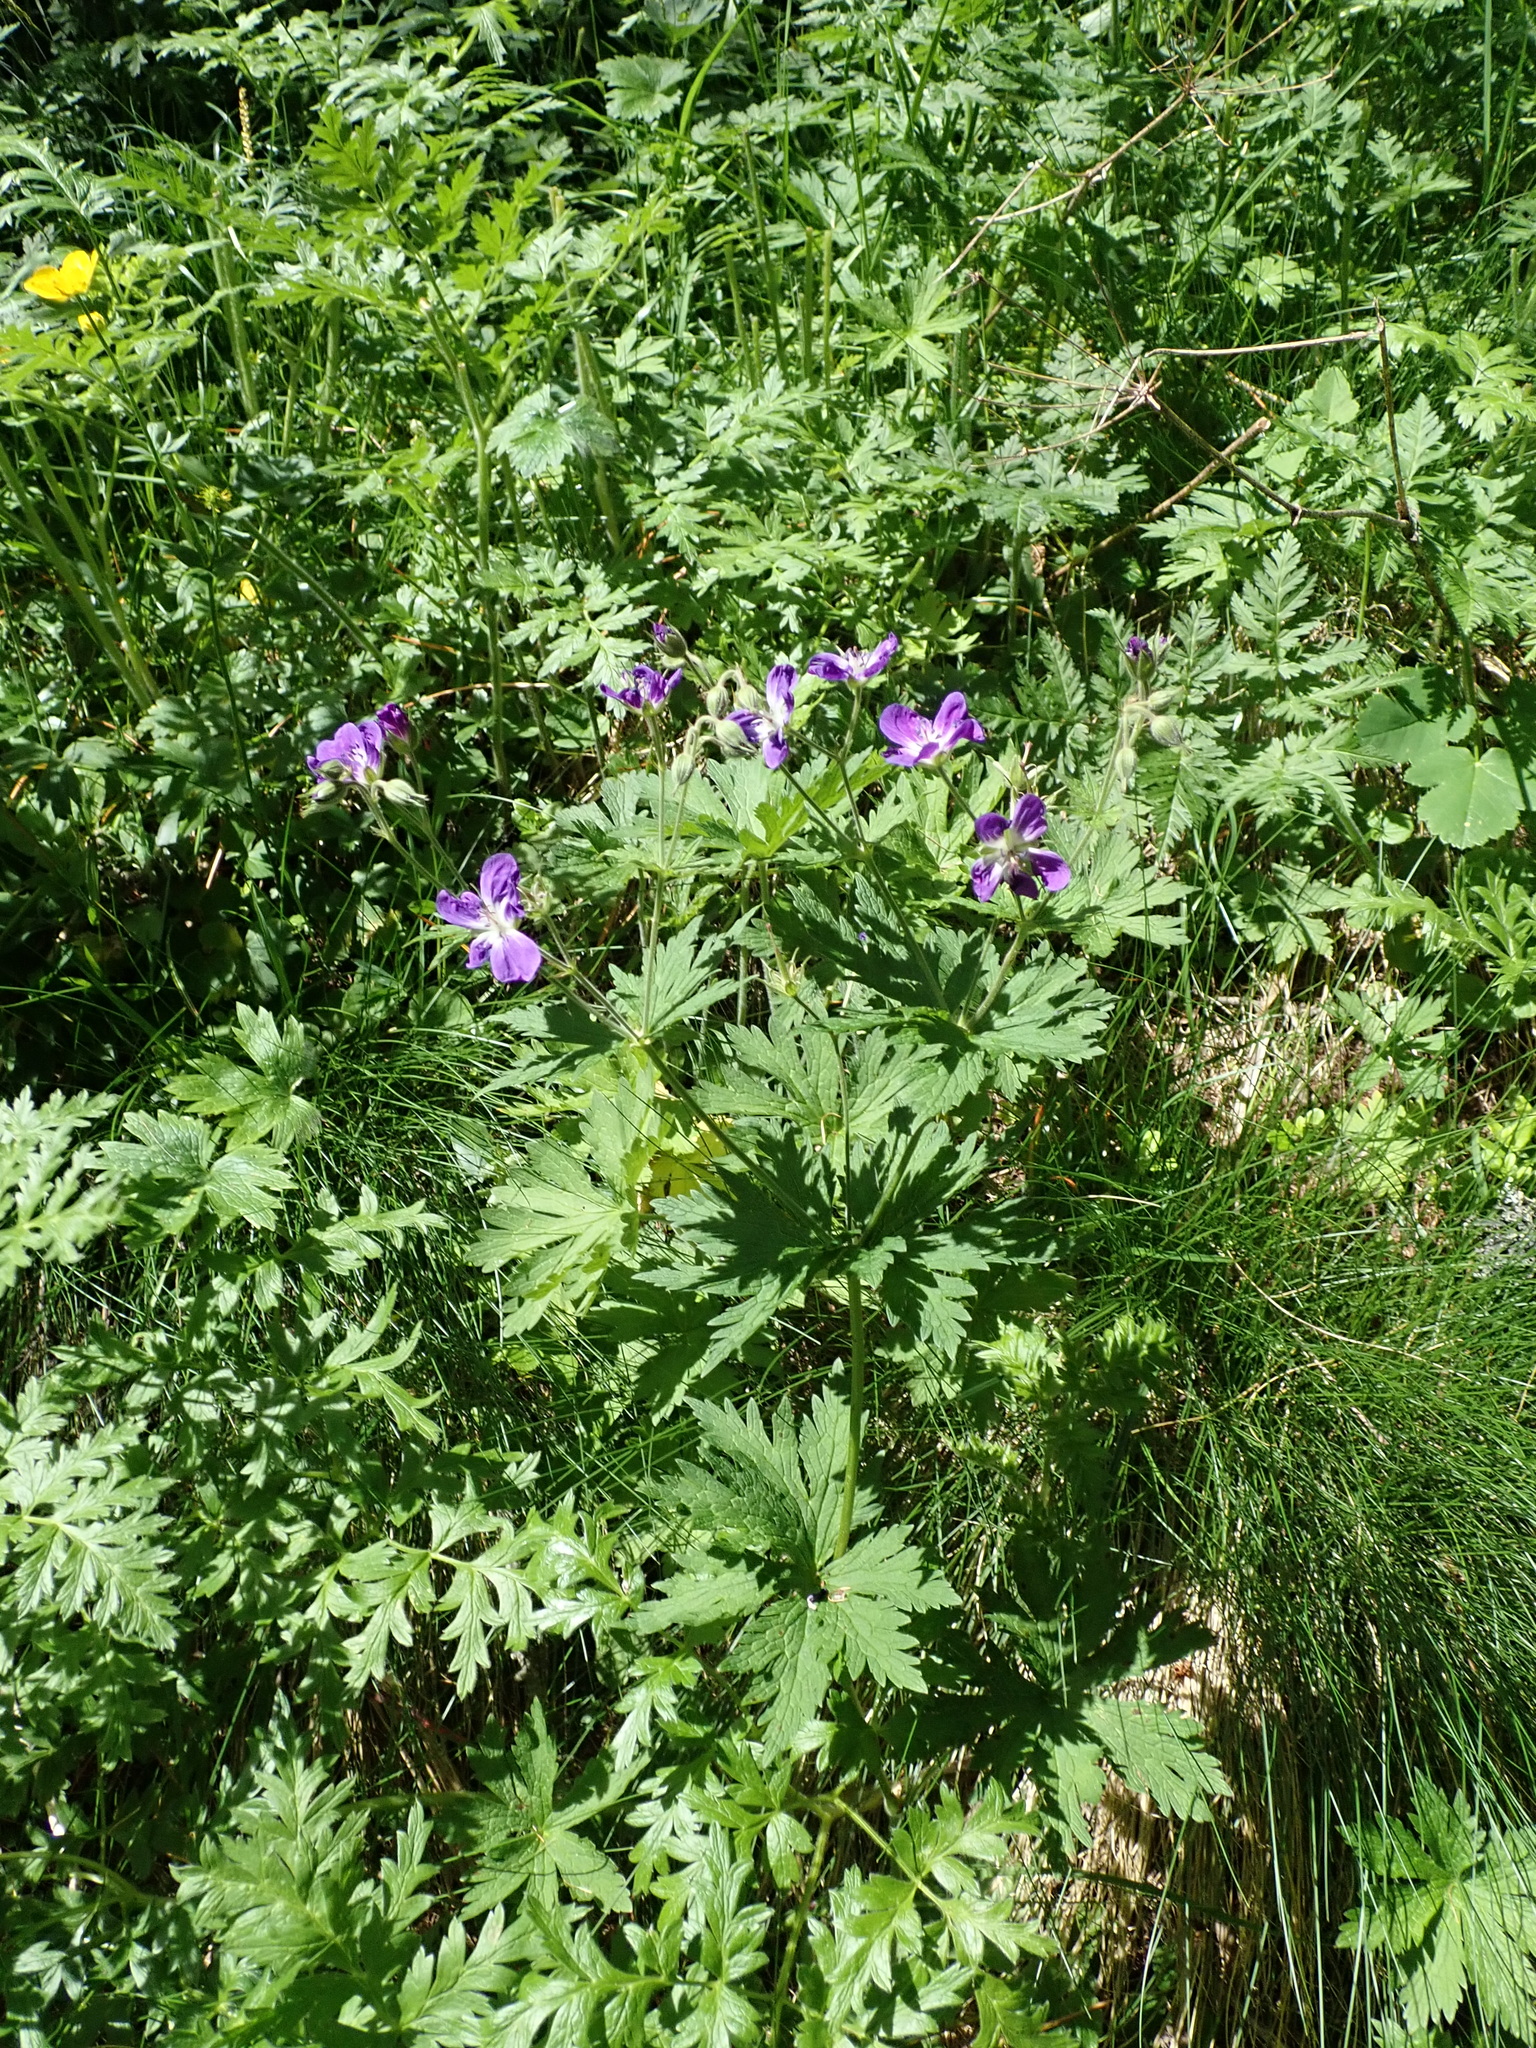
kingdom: Plantae
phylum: Tracheophyta
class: Magnoliopsida
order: Geraniales
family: Geraniaceae
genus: Geranium
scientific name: Geranium sylvaticum
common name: Wood crane's-bill
